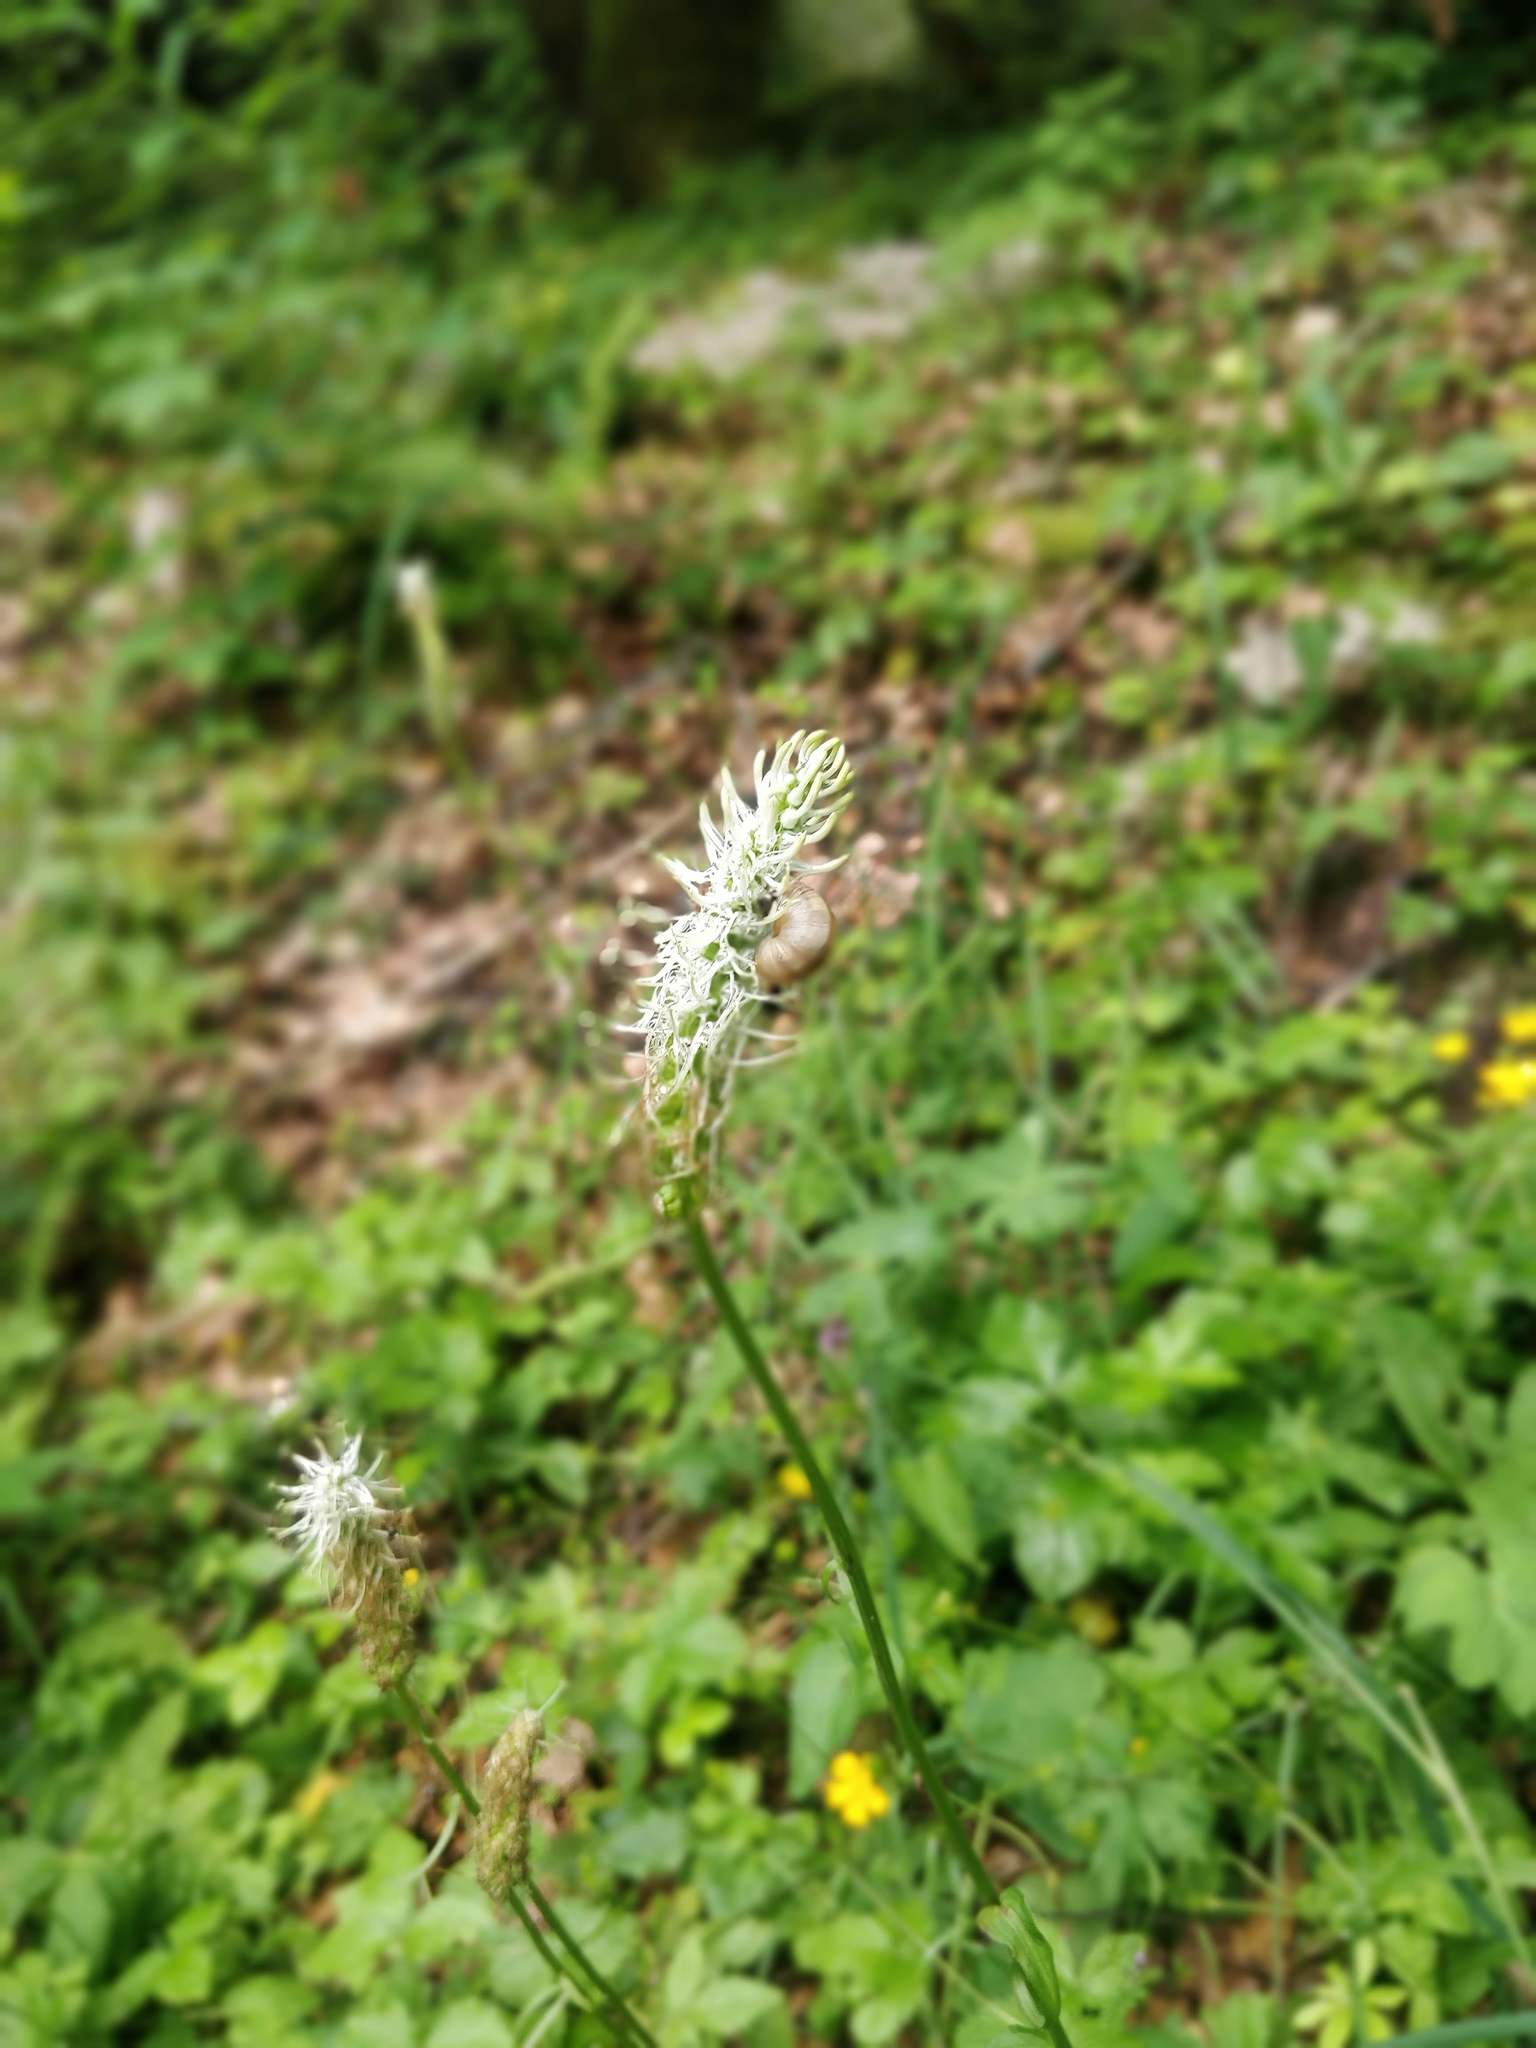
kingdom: Plantae
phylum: Tracheophyta
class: Magnoliopsida
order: Asterales
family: Campanulaceae
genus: Phyteuma
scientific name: Phyteuma spicatum
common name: Spiked rampion
